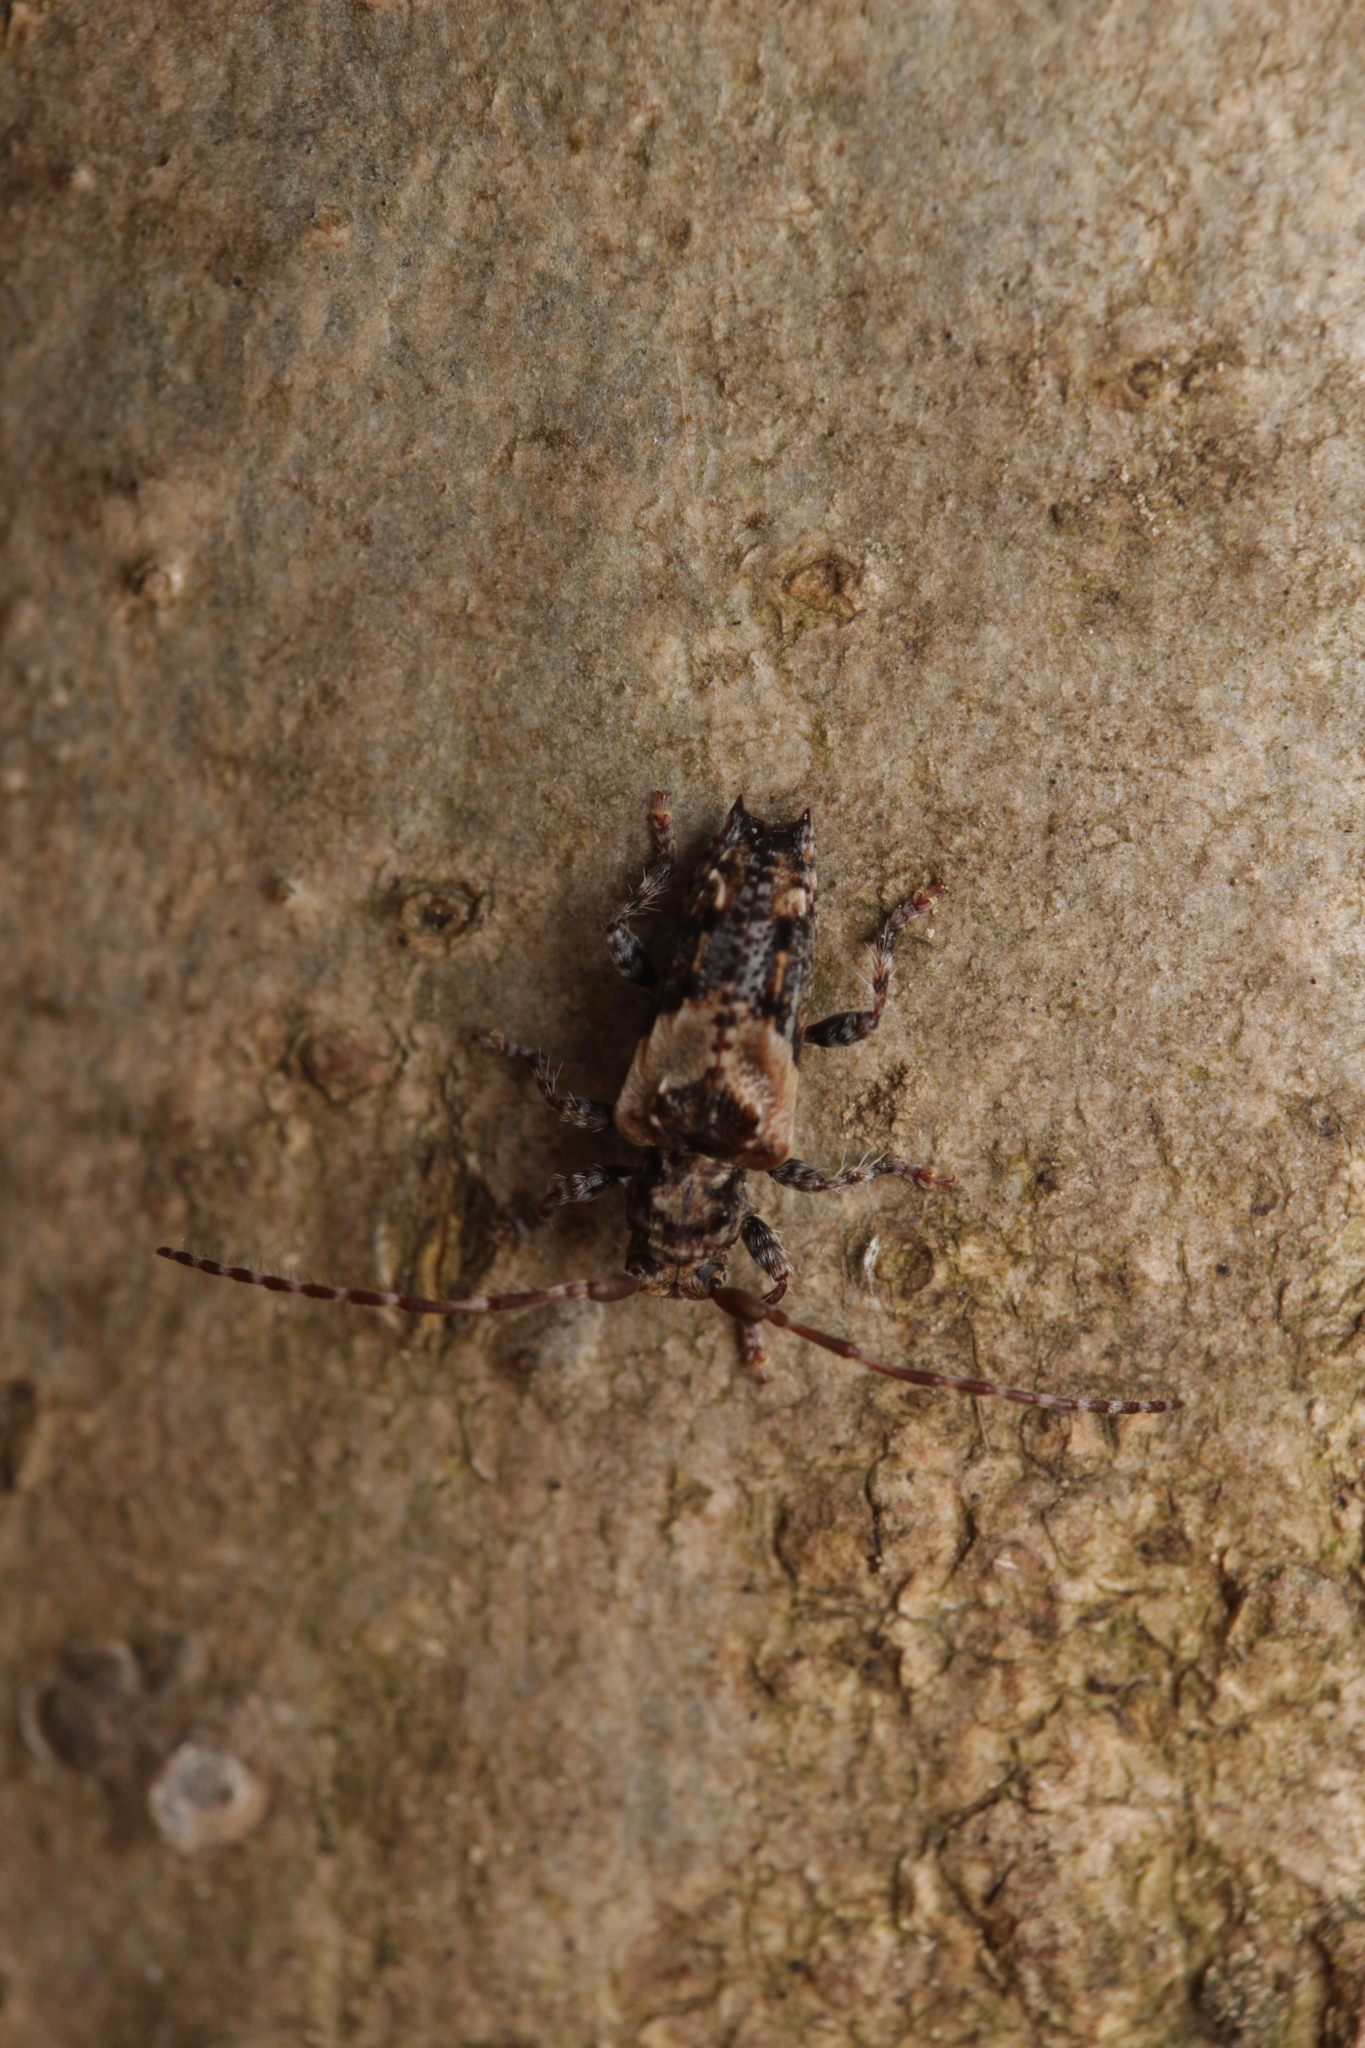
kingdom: Animalia
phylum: Arthropoda
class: Insecta
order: Coleoptera
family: Cerambycidae
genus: Pogonocherus
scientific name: Pogonocherus hispidus
